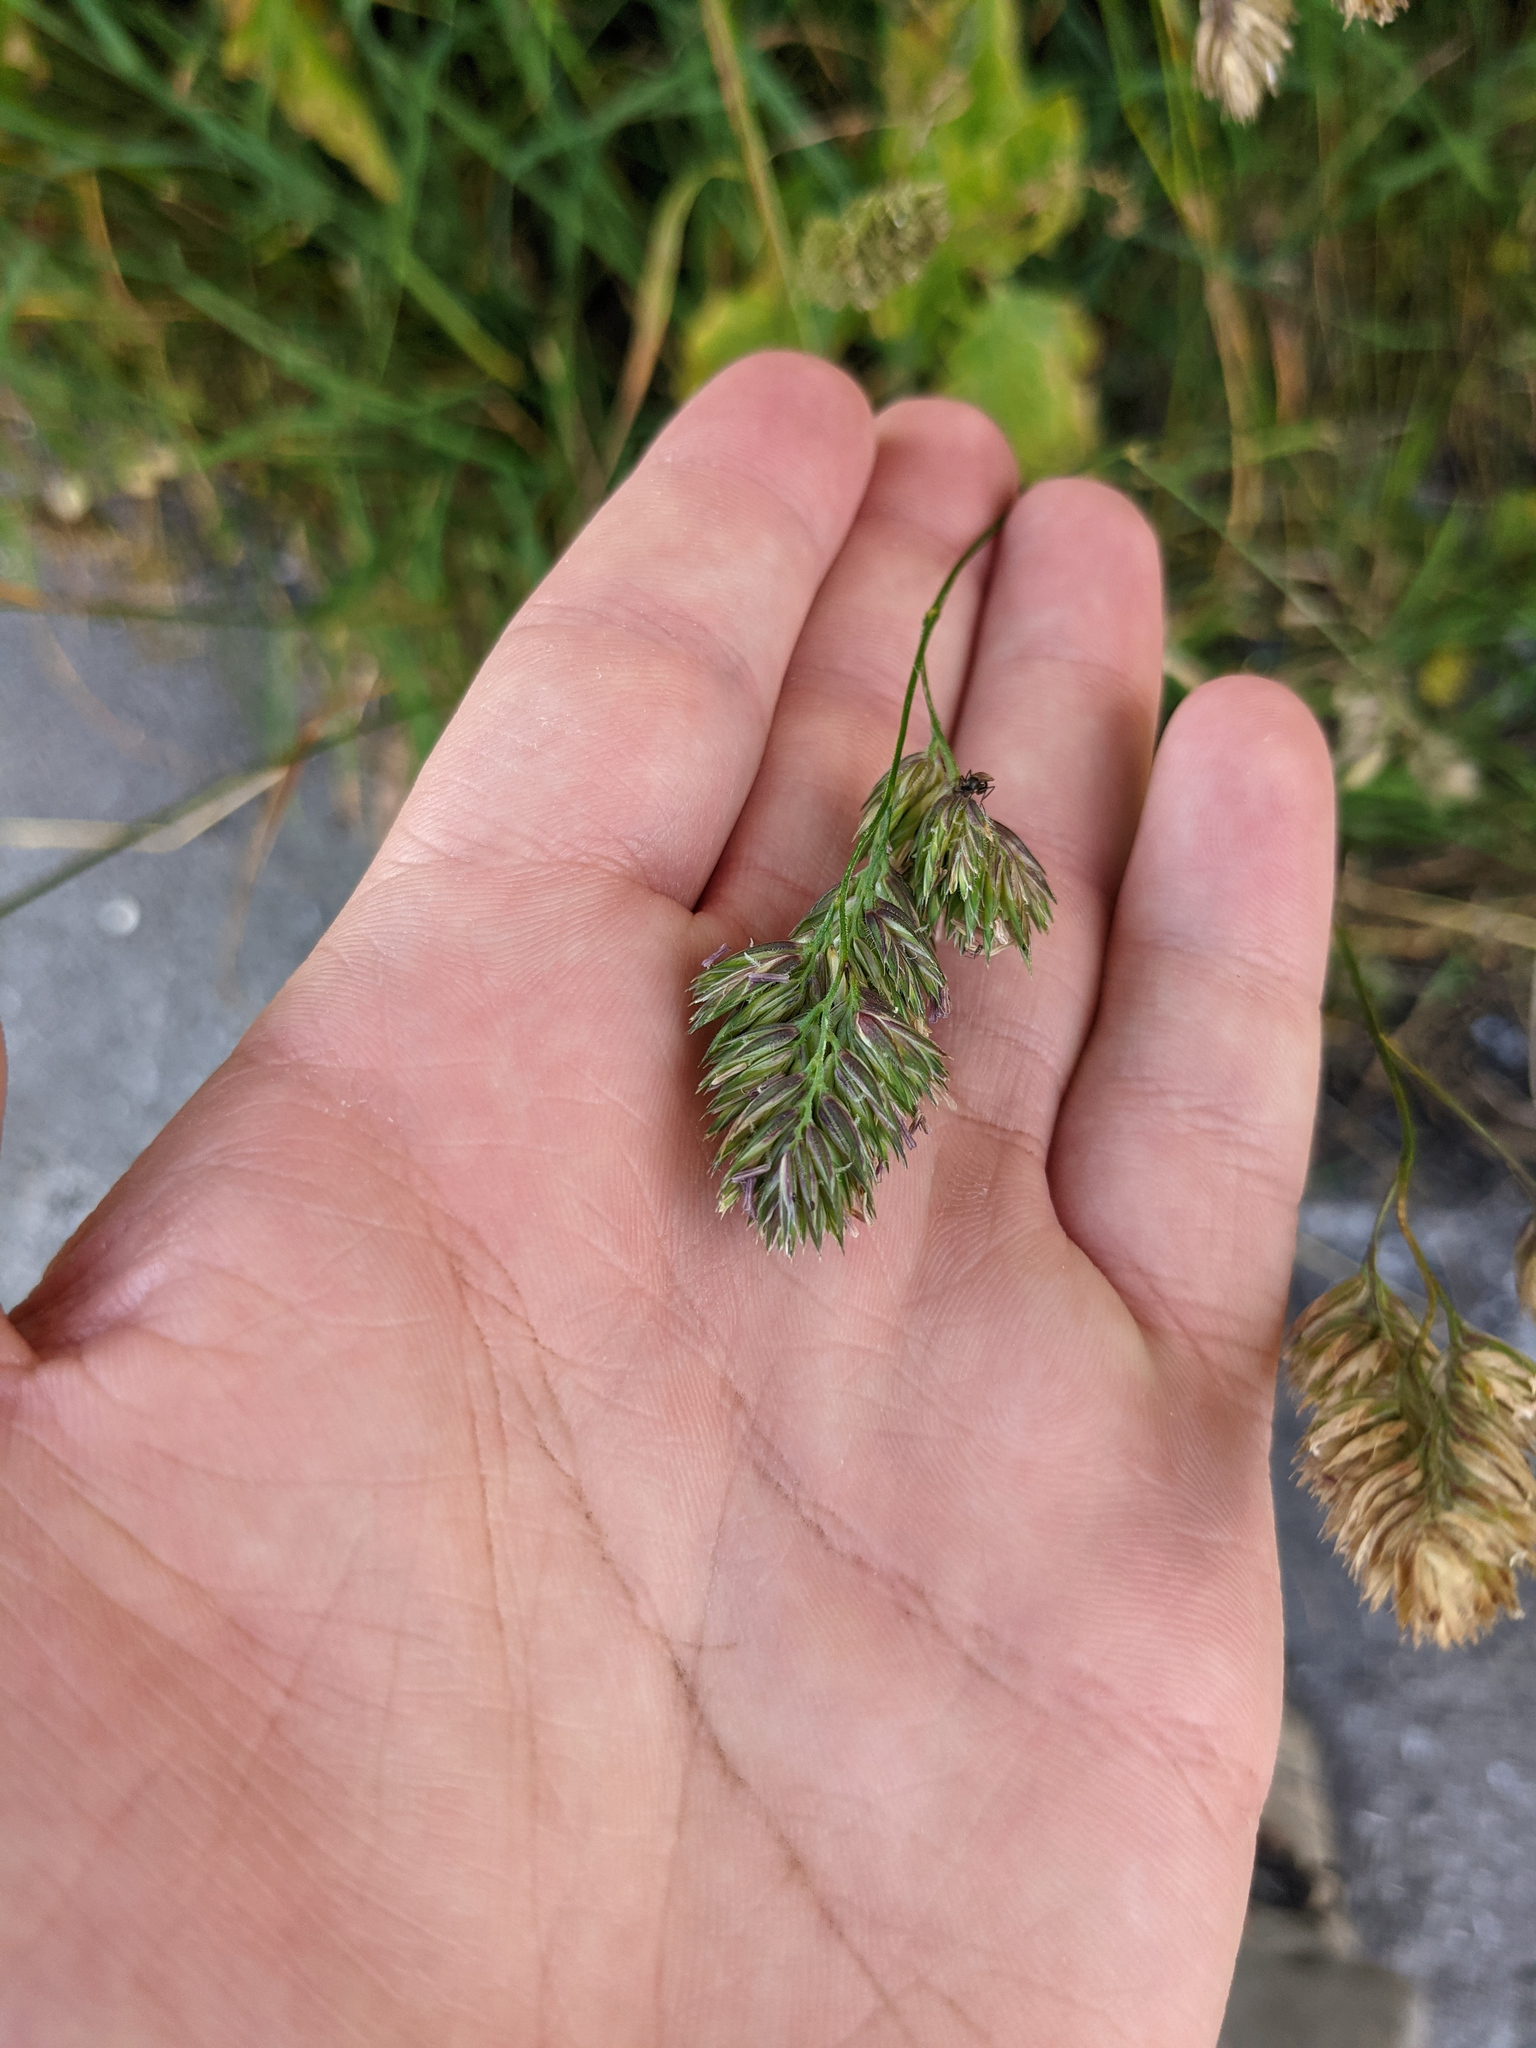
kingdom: Plantae
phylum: Tracheophyta
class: Liliopsida
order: Poales
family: Poaceae
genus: Dactylis
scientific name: Dactylis glomerata
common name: Orchardgrass
